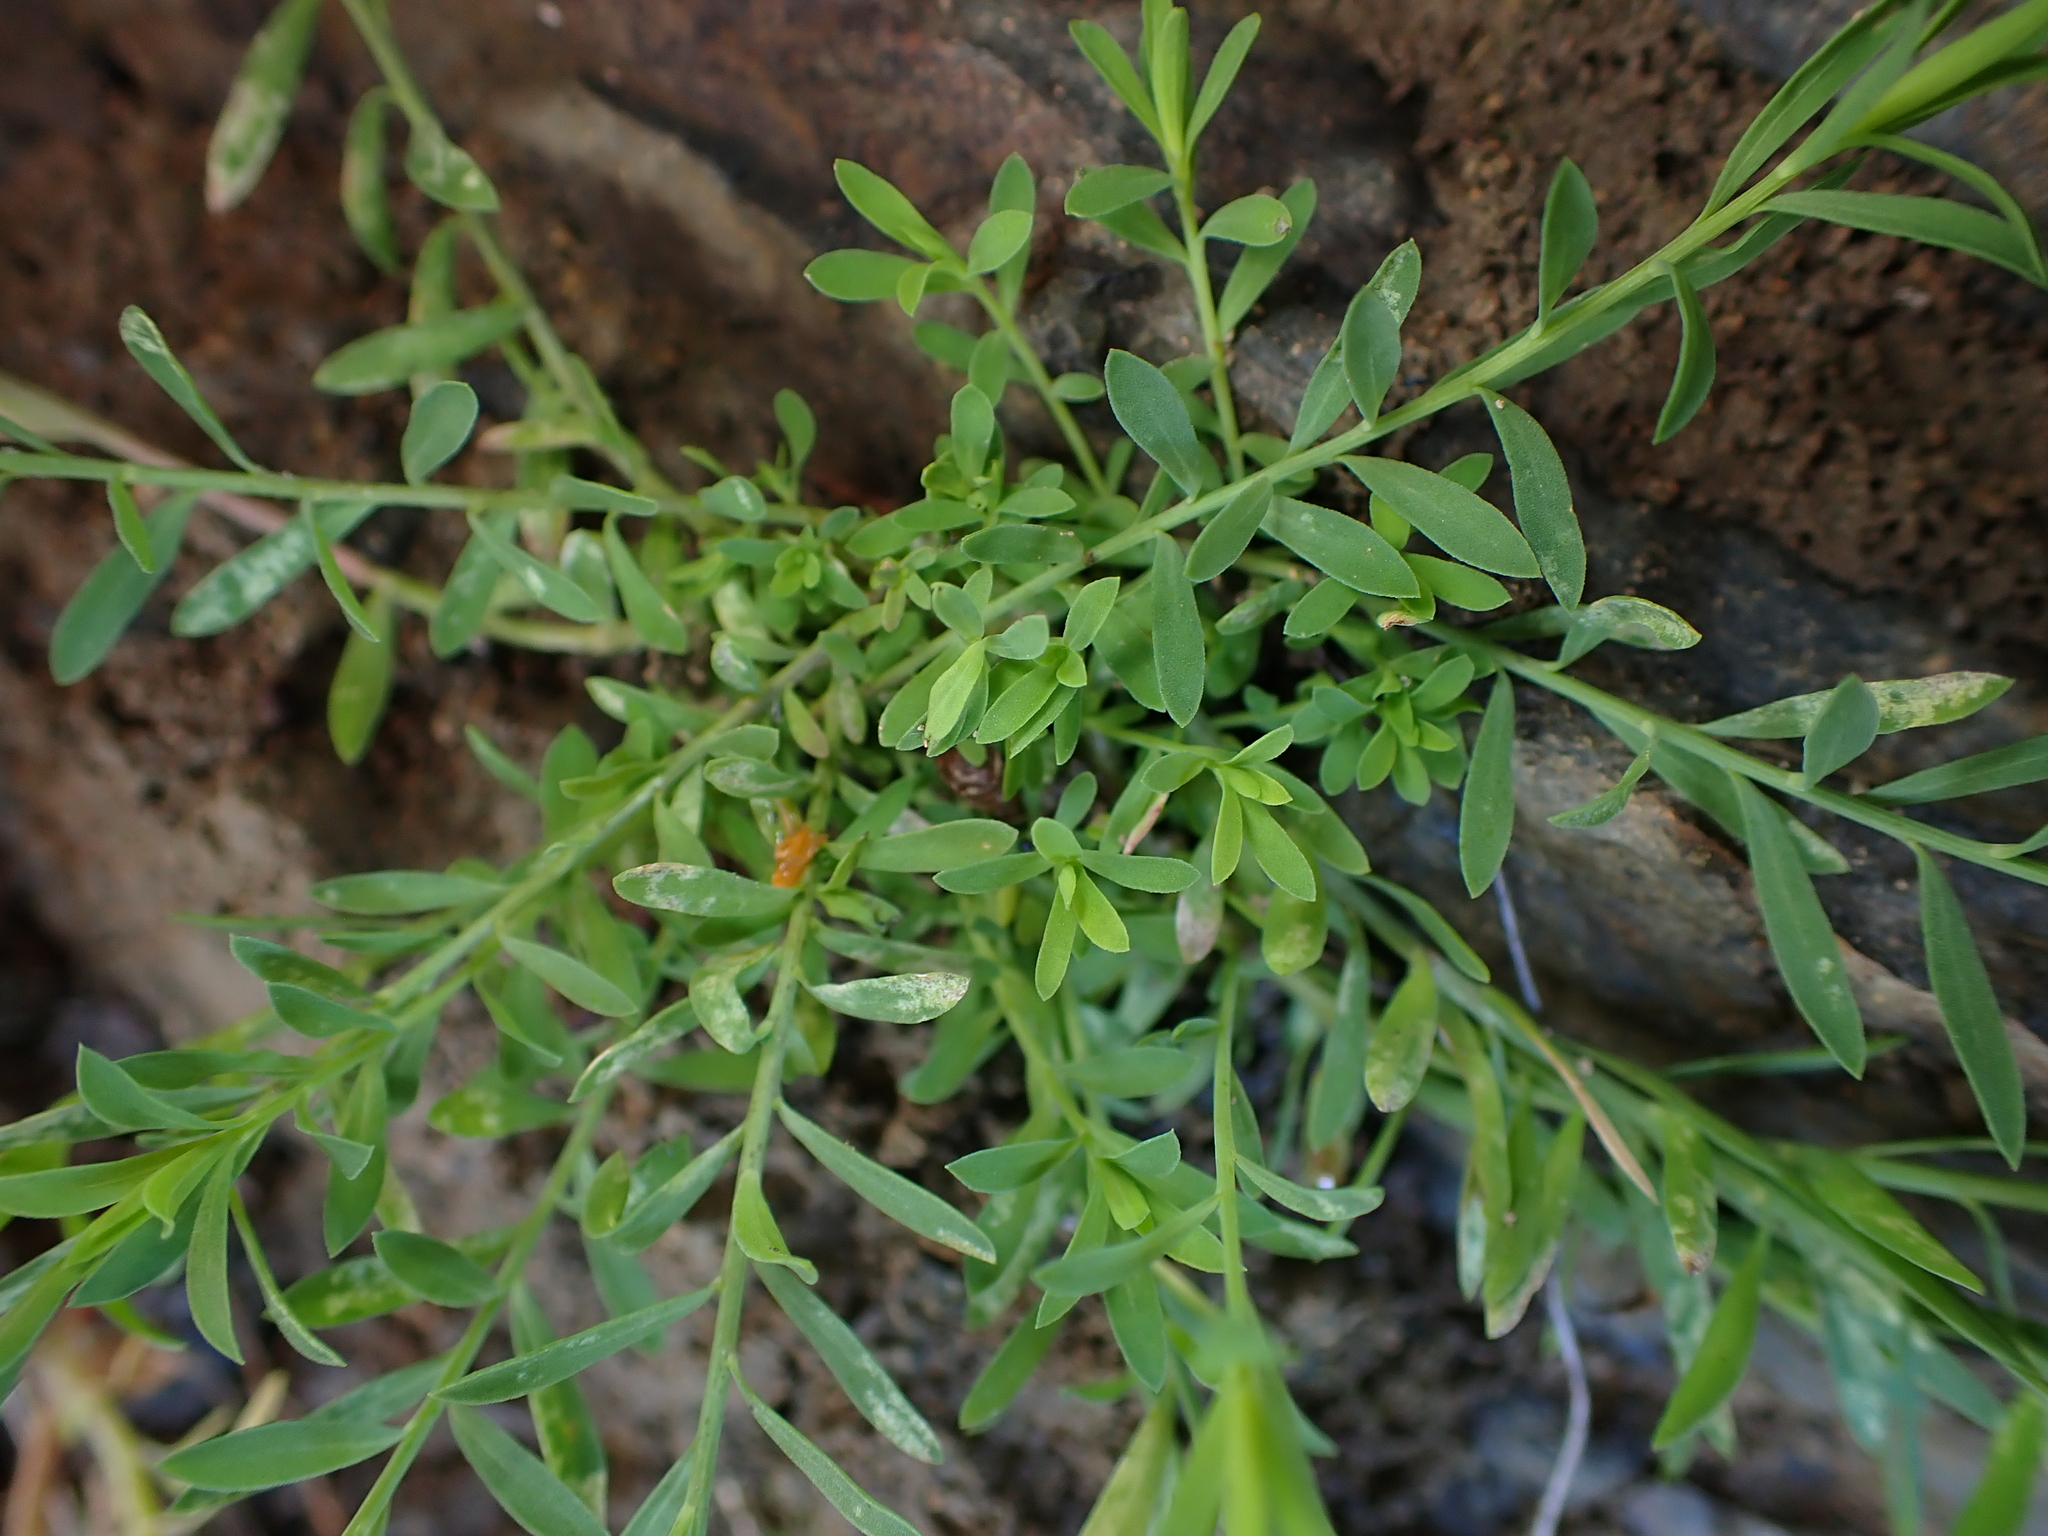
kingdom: Plantae
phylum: Tracheophyta
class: Magnoliopsida
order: Malpighiales
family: Linaceae
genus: Linum
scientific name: Linum trigynum
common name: French flax
